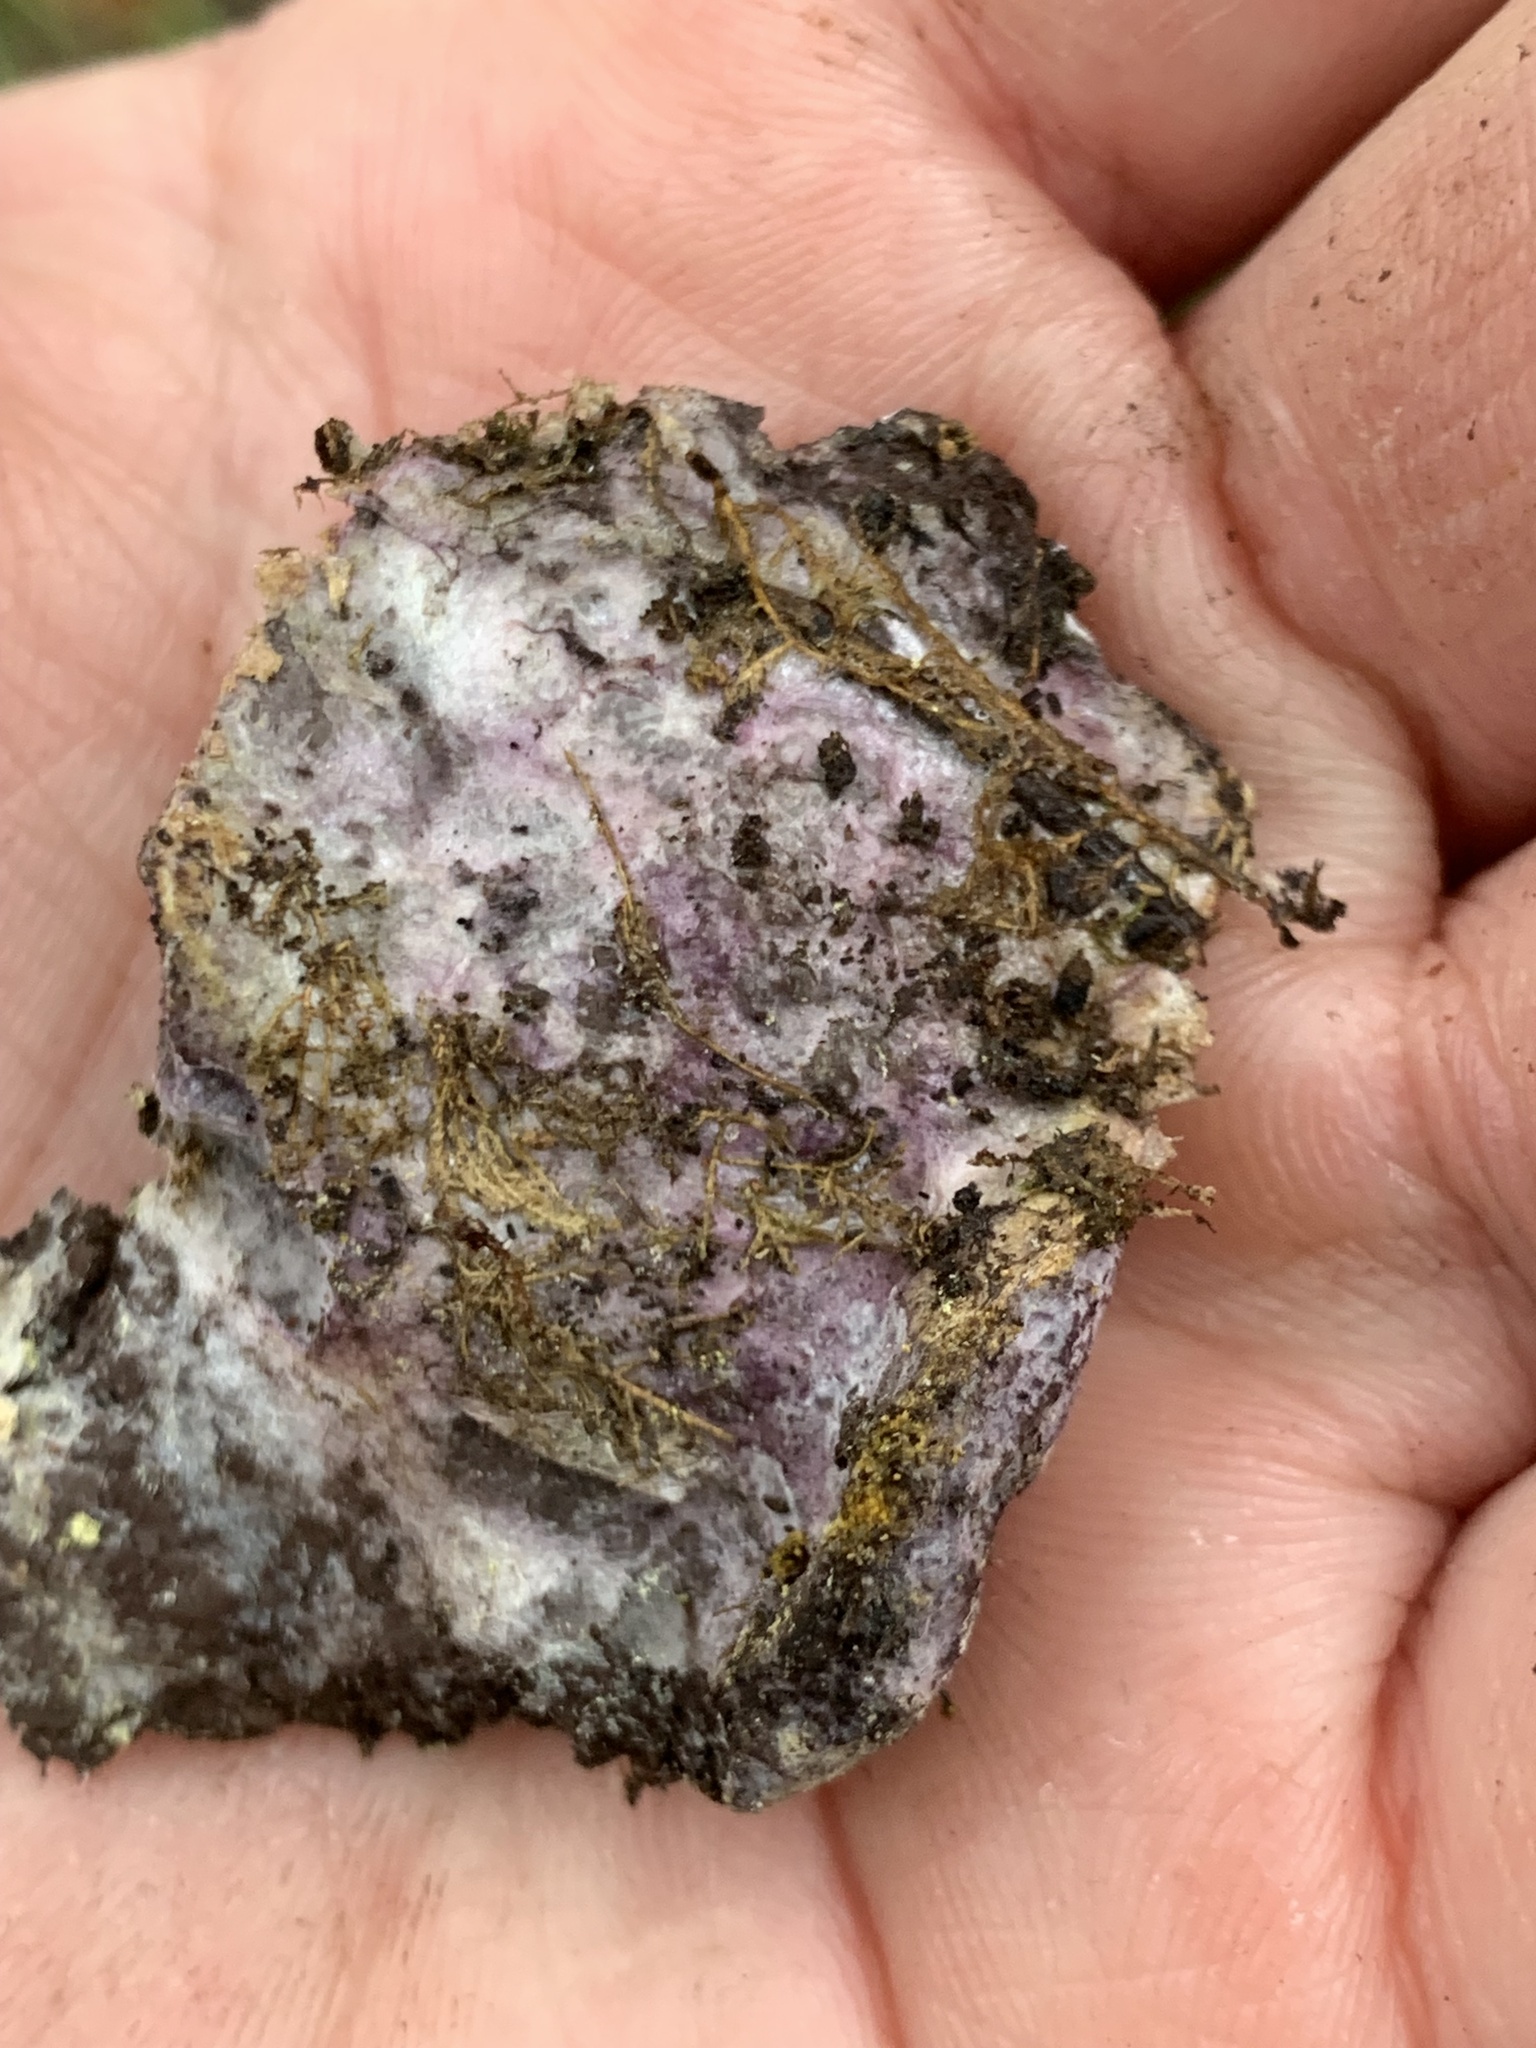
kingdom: Fungi
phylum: Ascomycota
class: Sordariomycetes
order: Hypocreales
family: Bionectriaceae
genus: Nectriopsis
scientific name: Nectriopsis violacea
